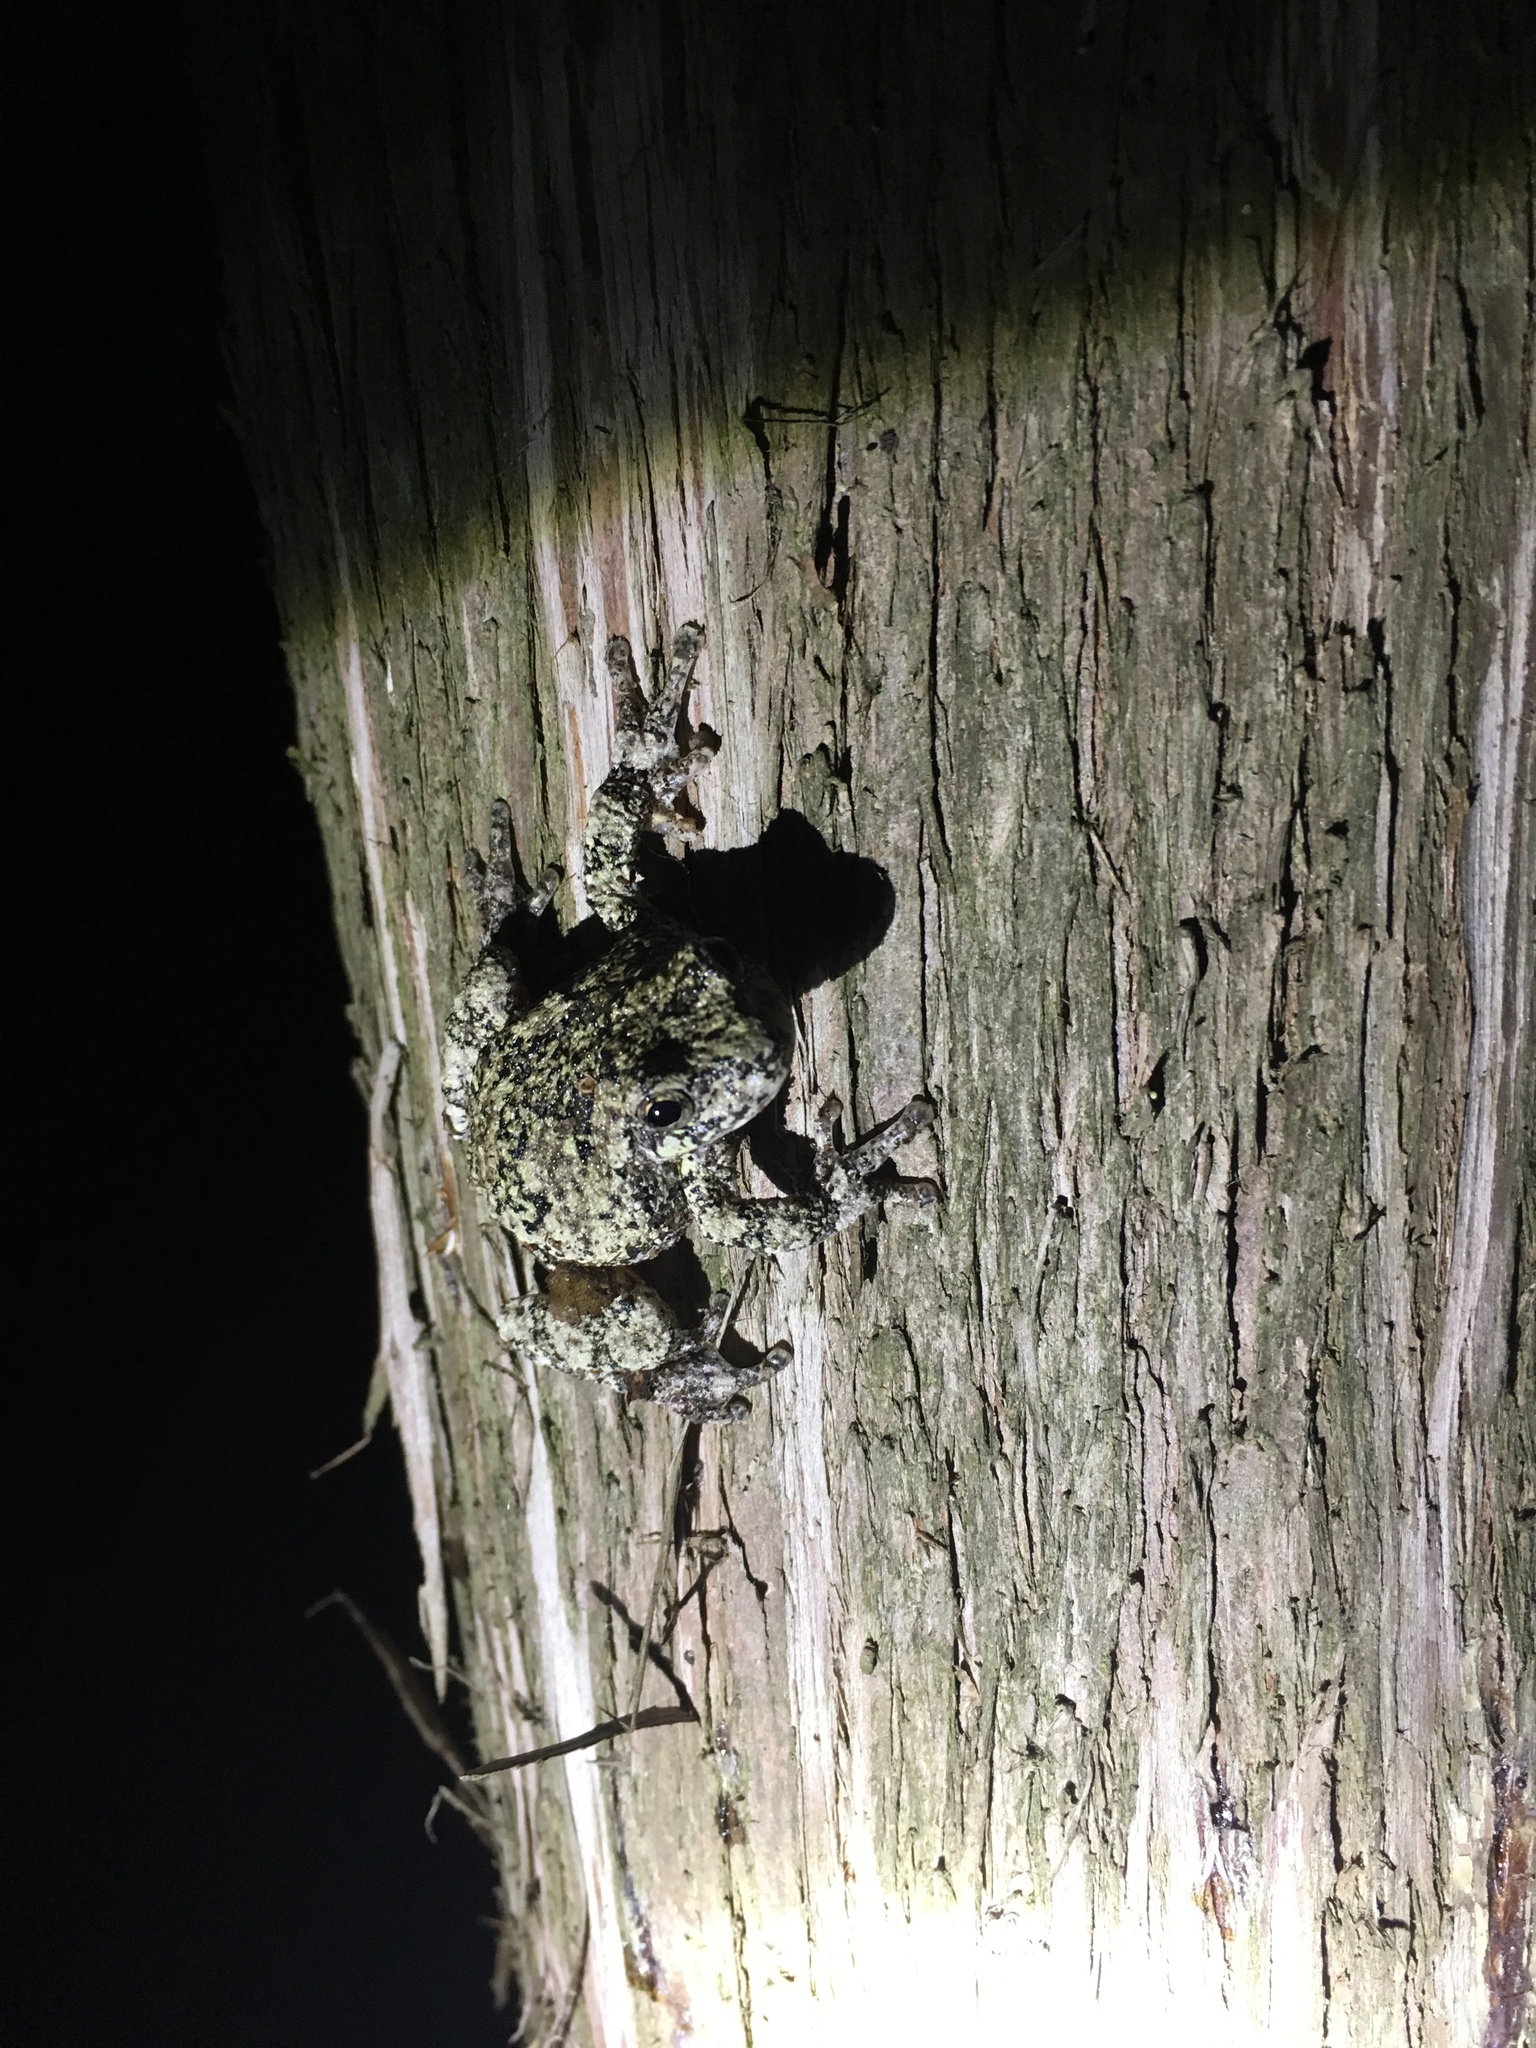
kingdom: Animalia
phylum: Chordata
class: Amphibia
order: Anura
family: Hylidae
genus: Dryophytes
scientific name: Dryophytes versicolor
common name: Gray treefrog
